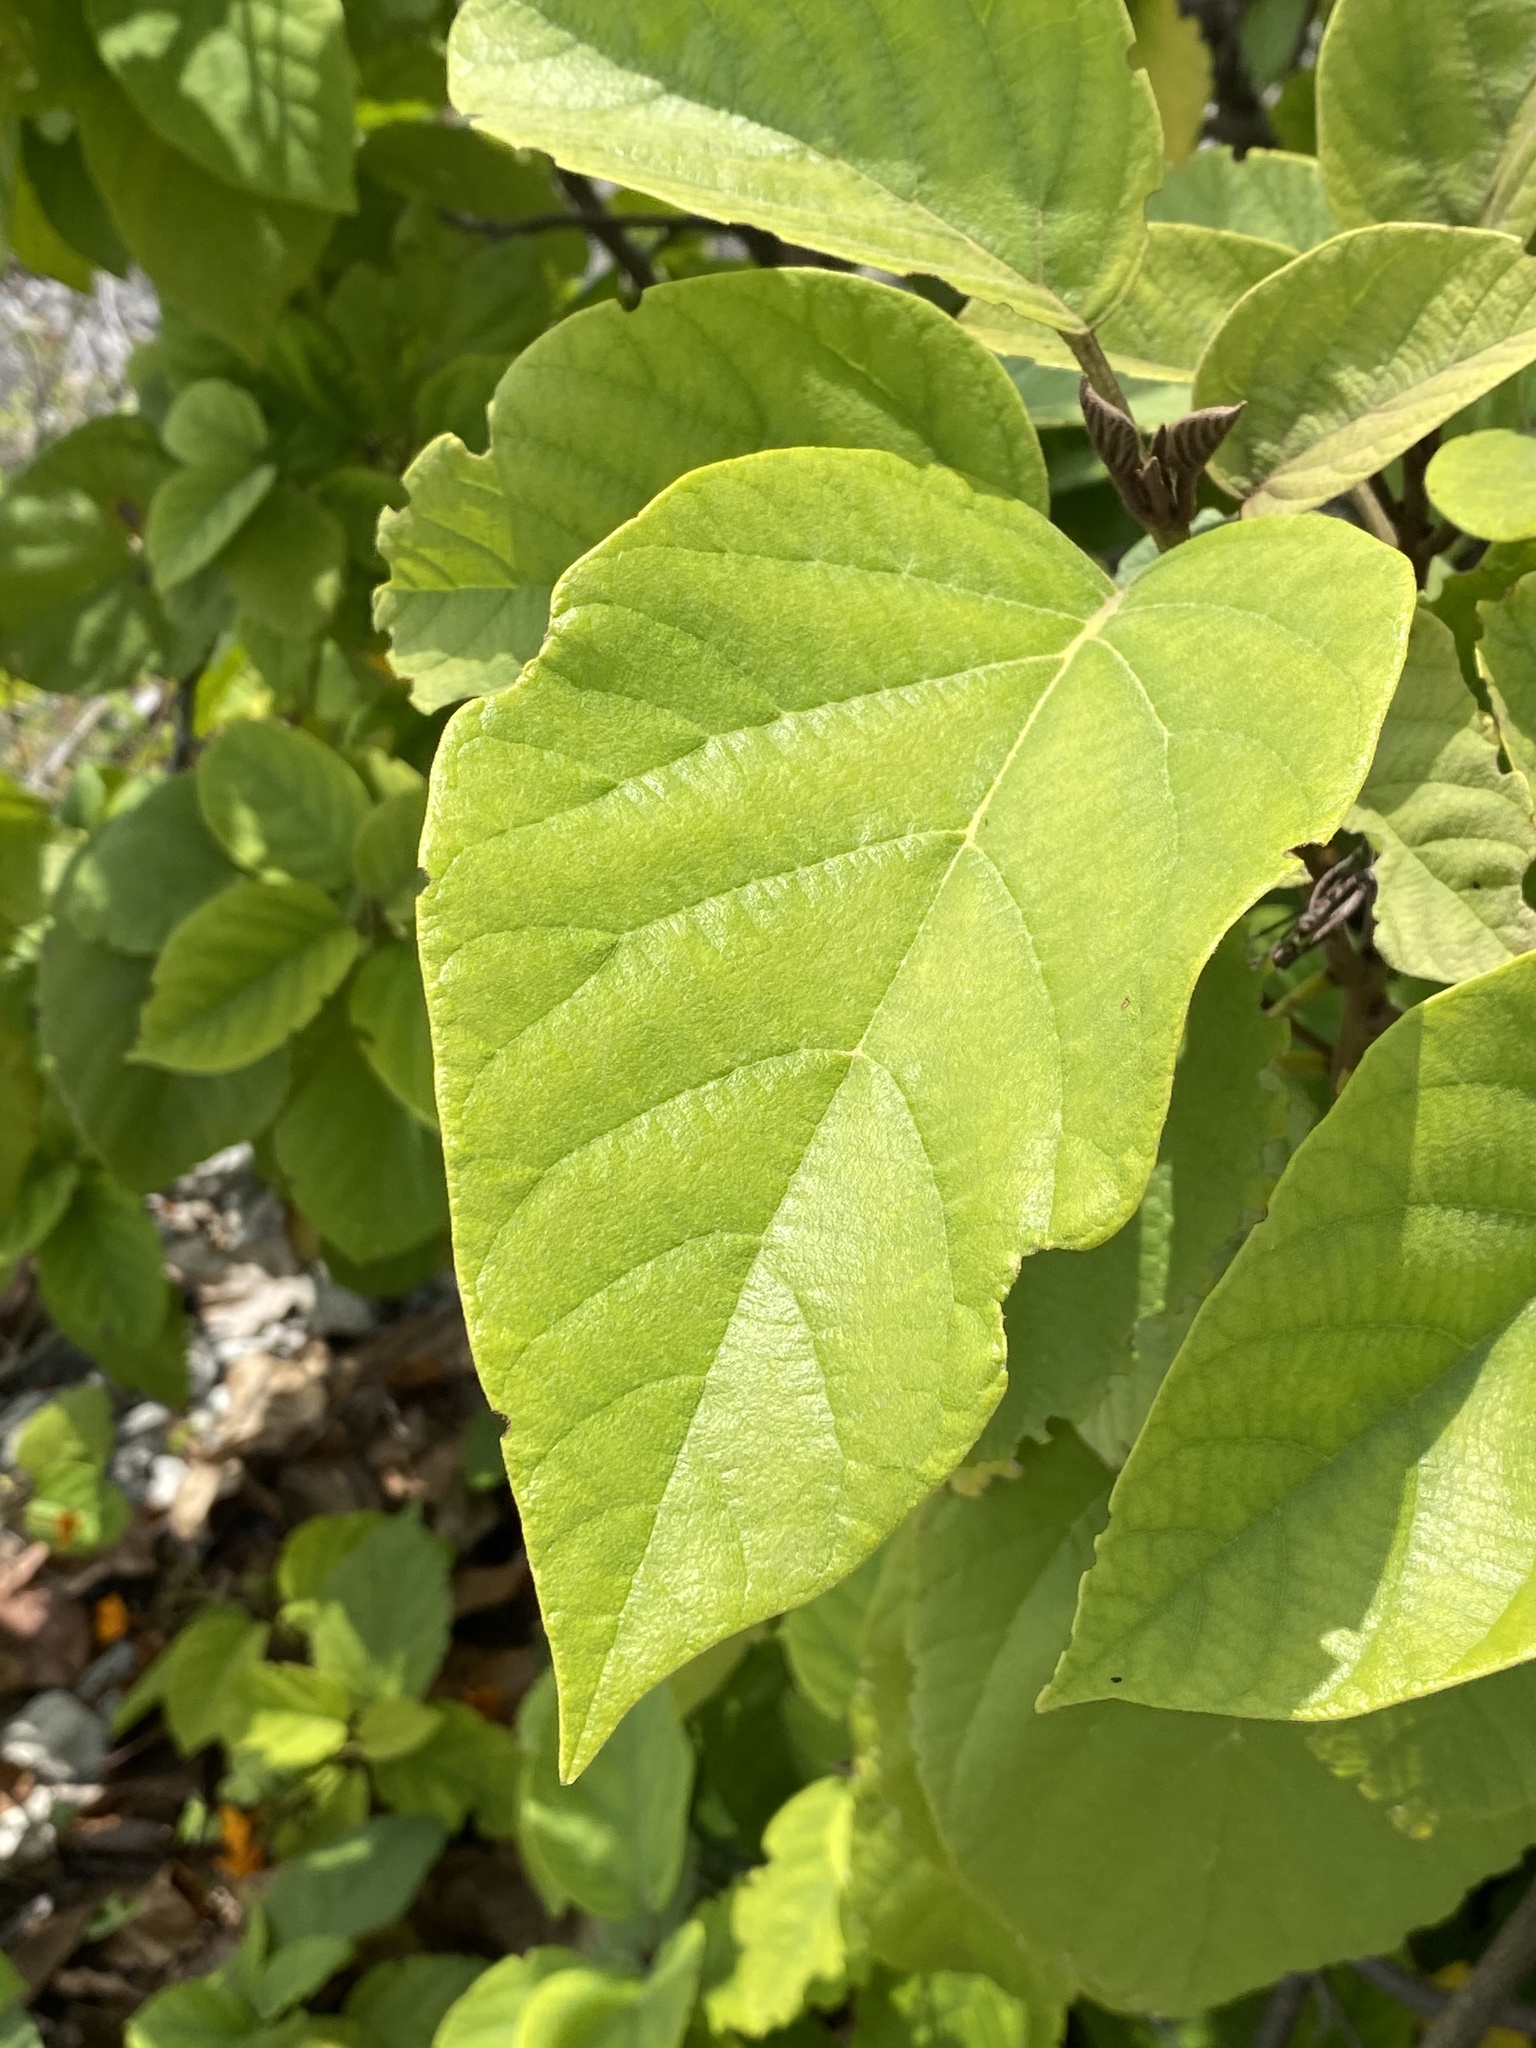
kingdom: Plantae
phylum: Tracheophyta
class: Magnoliopsida
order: Boraginales
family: Cordiaceae
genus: Cordia
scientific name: Cordia sebestena
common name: Largeleaf geigertree
